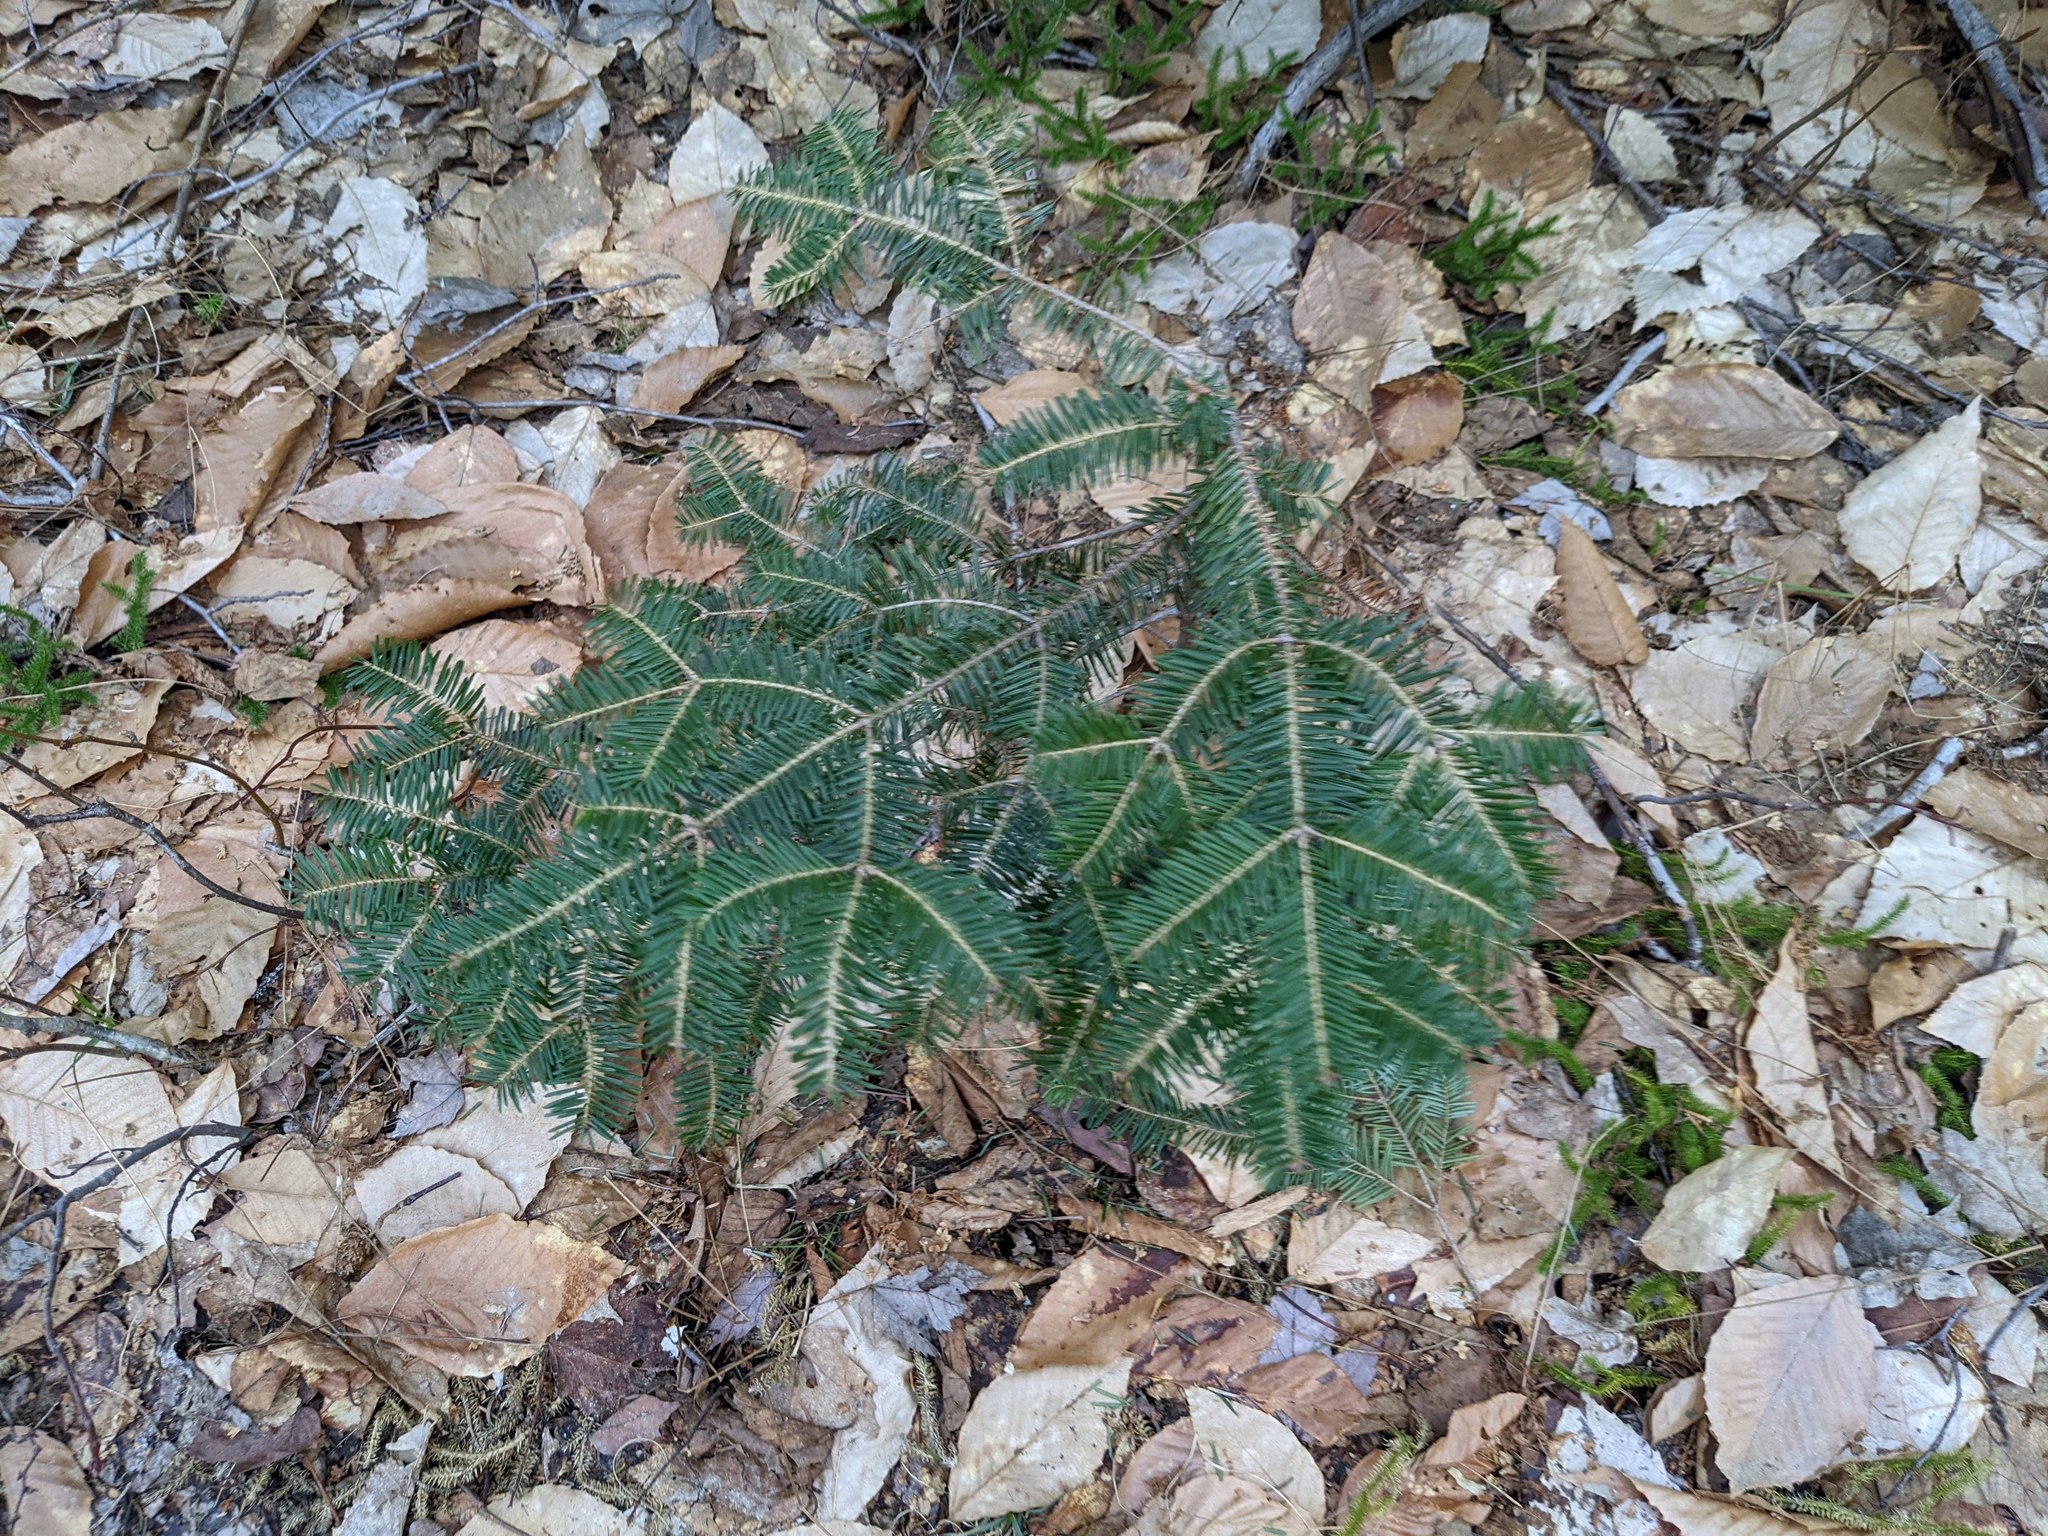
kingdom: Plantae
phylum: Tracheophyta
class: Magnoliopsida
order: Fagales
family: Fagaceae
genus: Fagus
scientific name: Fagus grandifolia
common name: American beech
